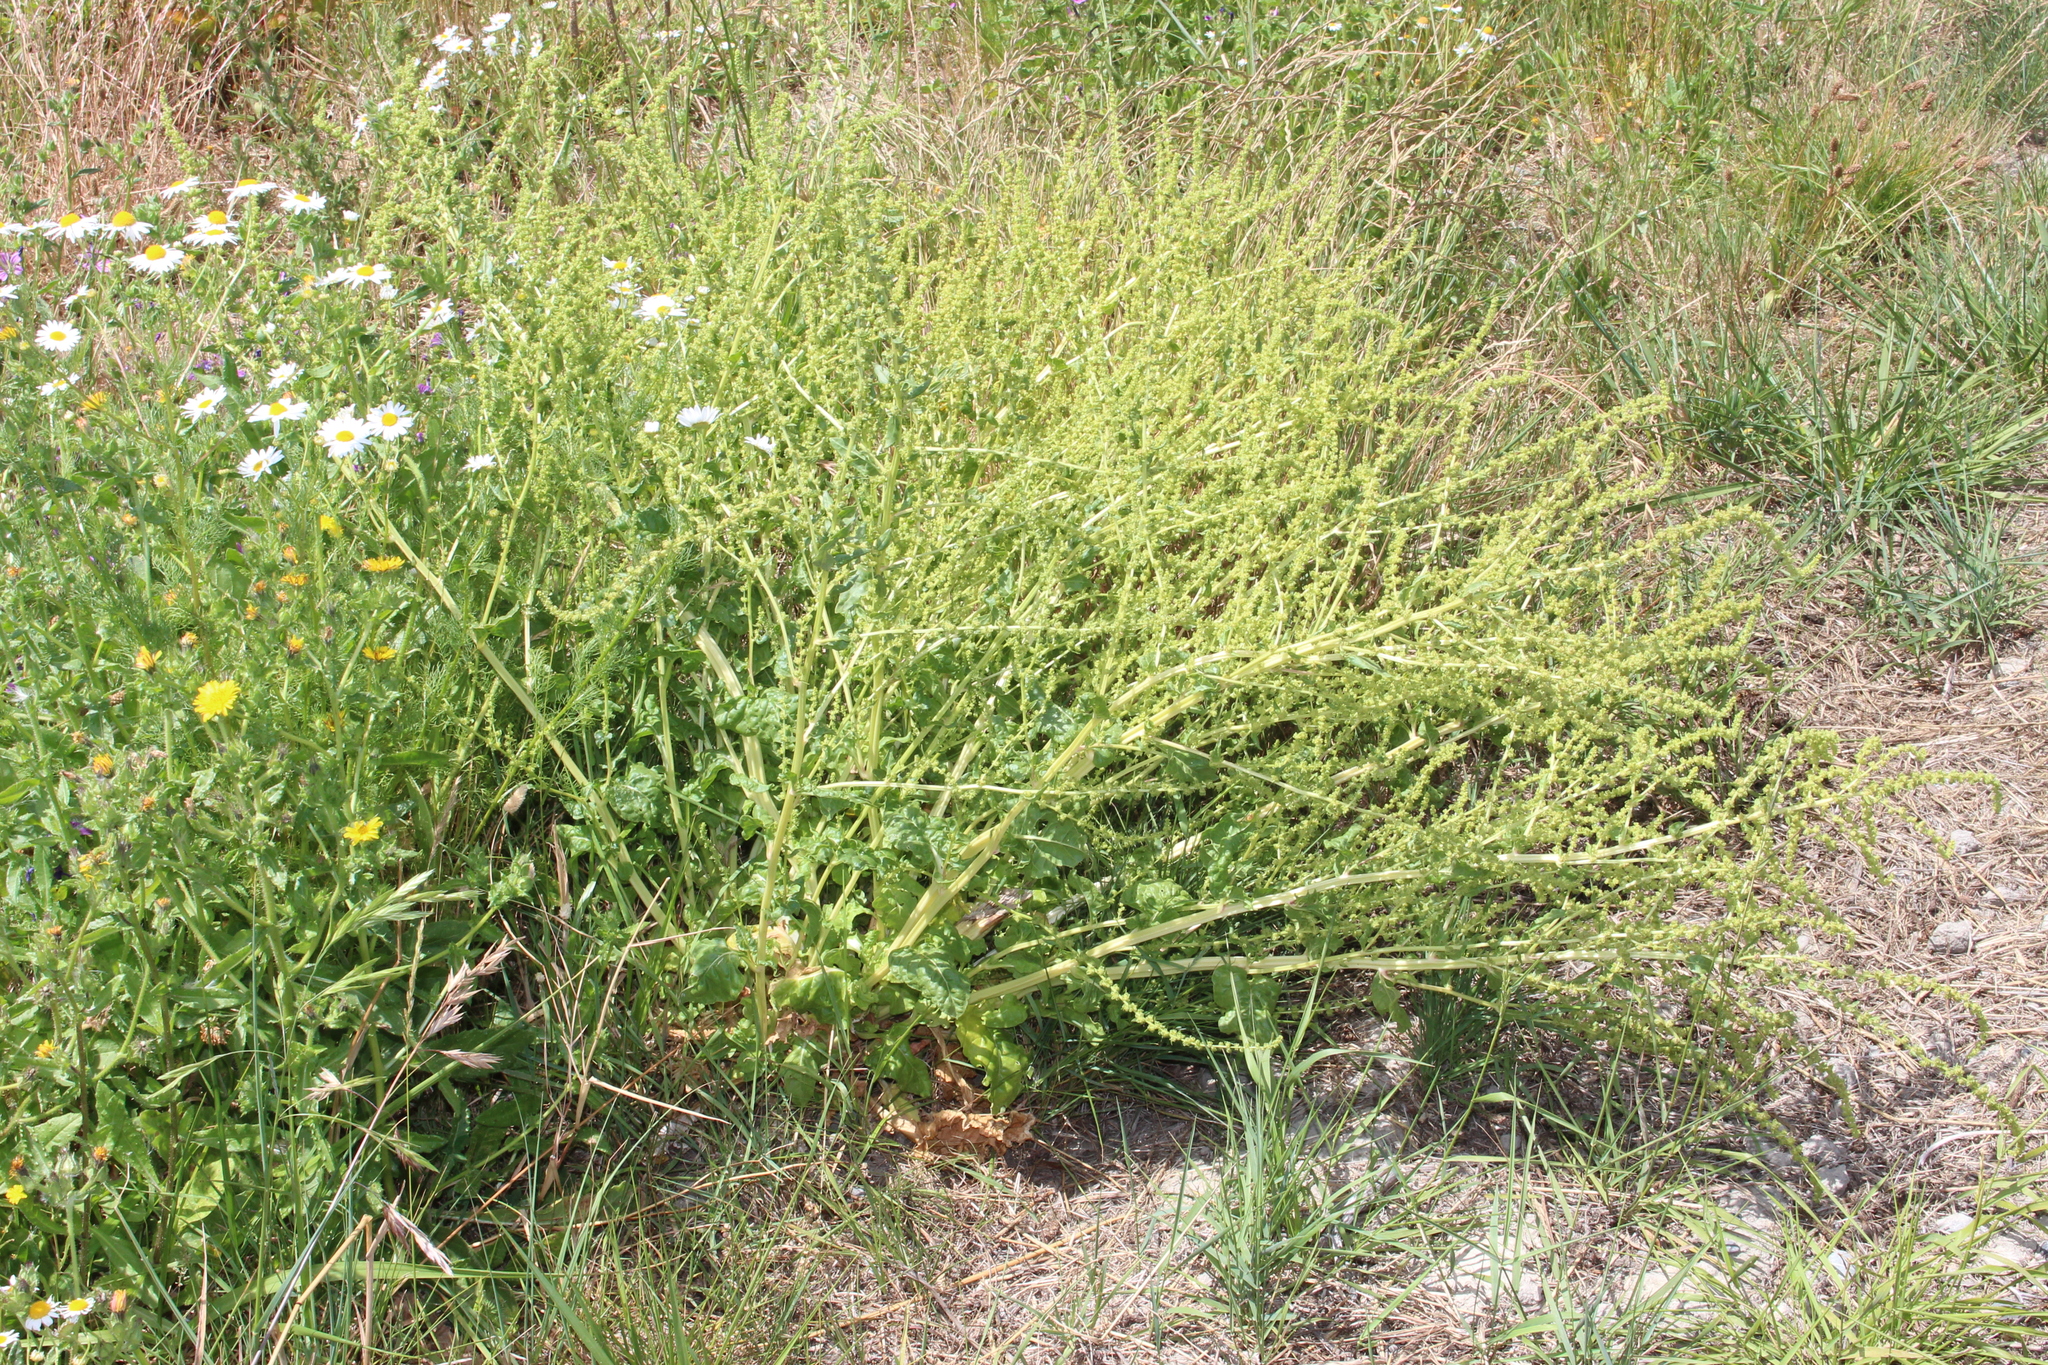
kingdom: Plantae
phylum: Tracheophyta
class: Magnoliopsida
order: Caryophyllales
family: Amaranthaceae
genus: Beta
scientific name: Beta vulgaris
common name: Beet
